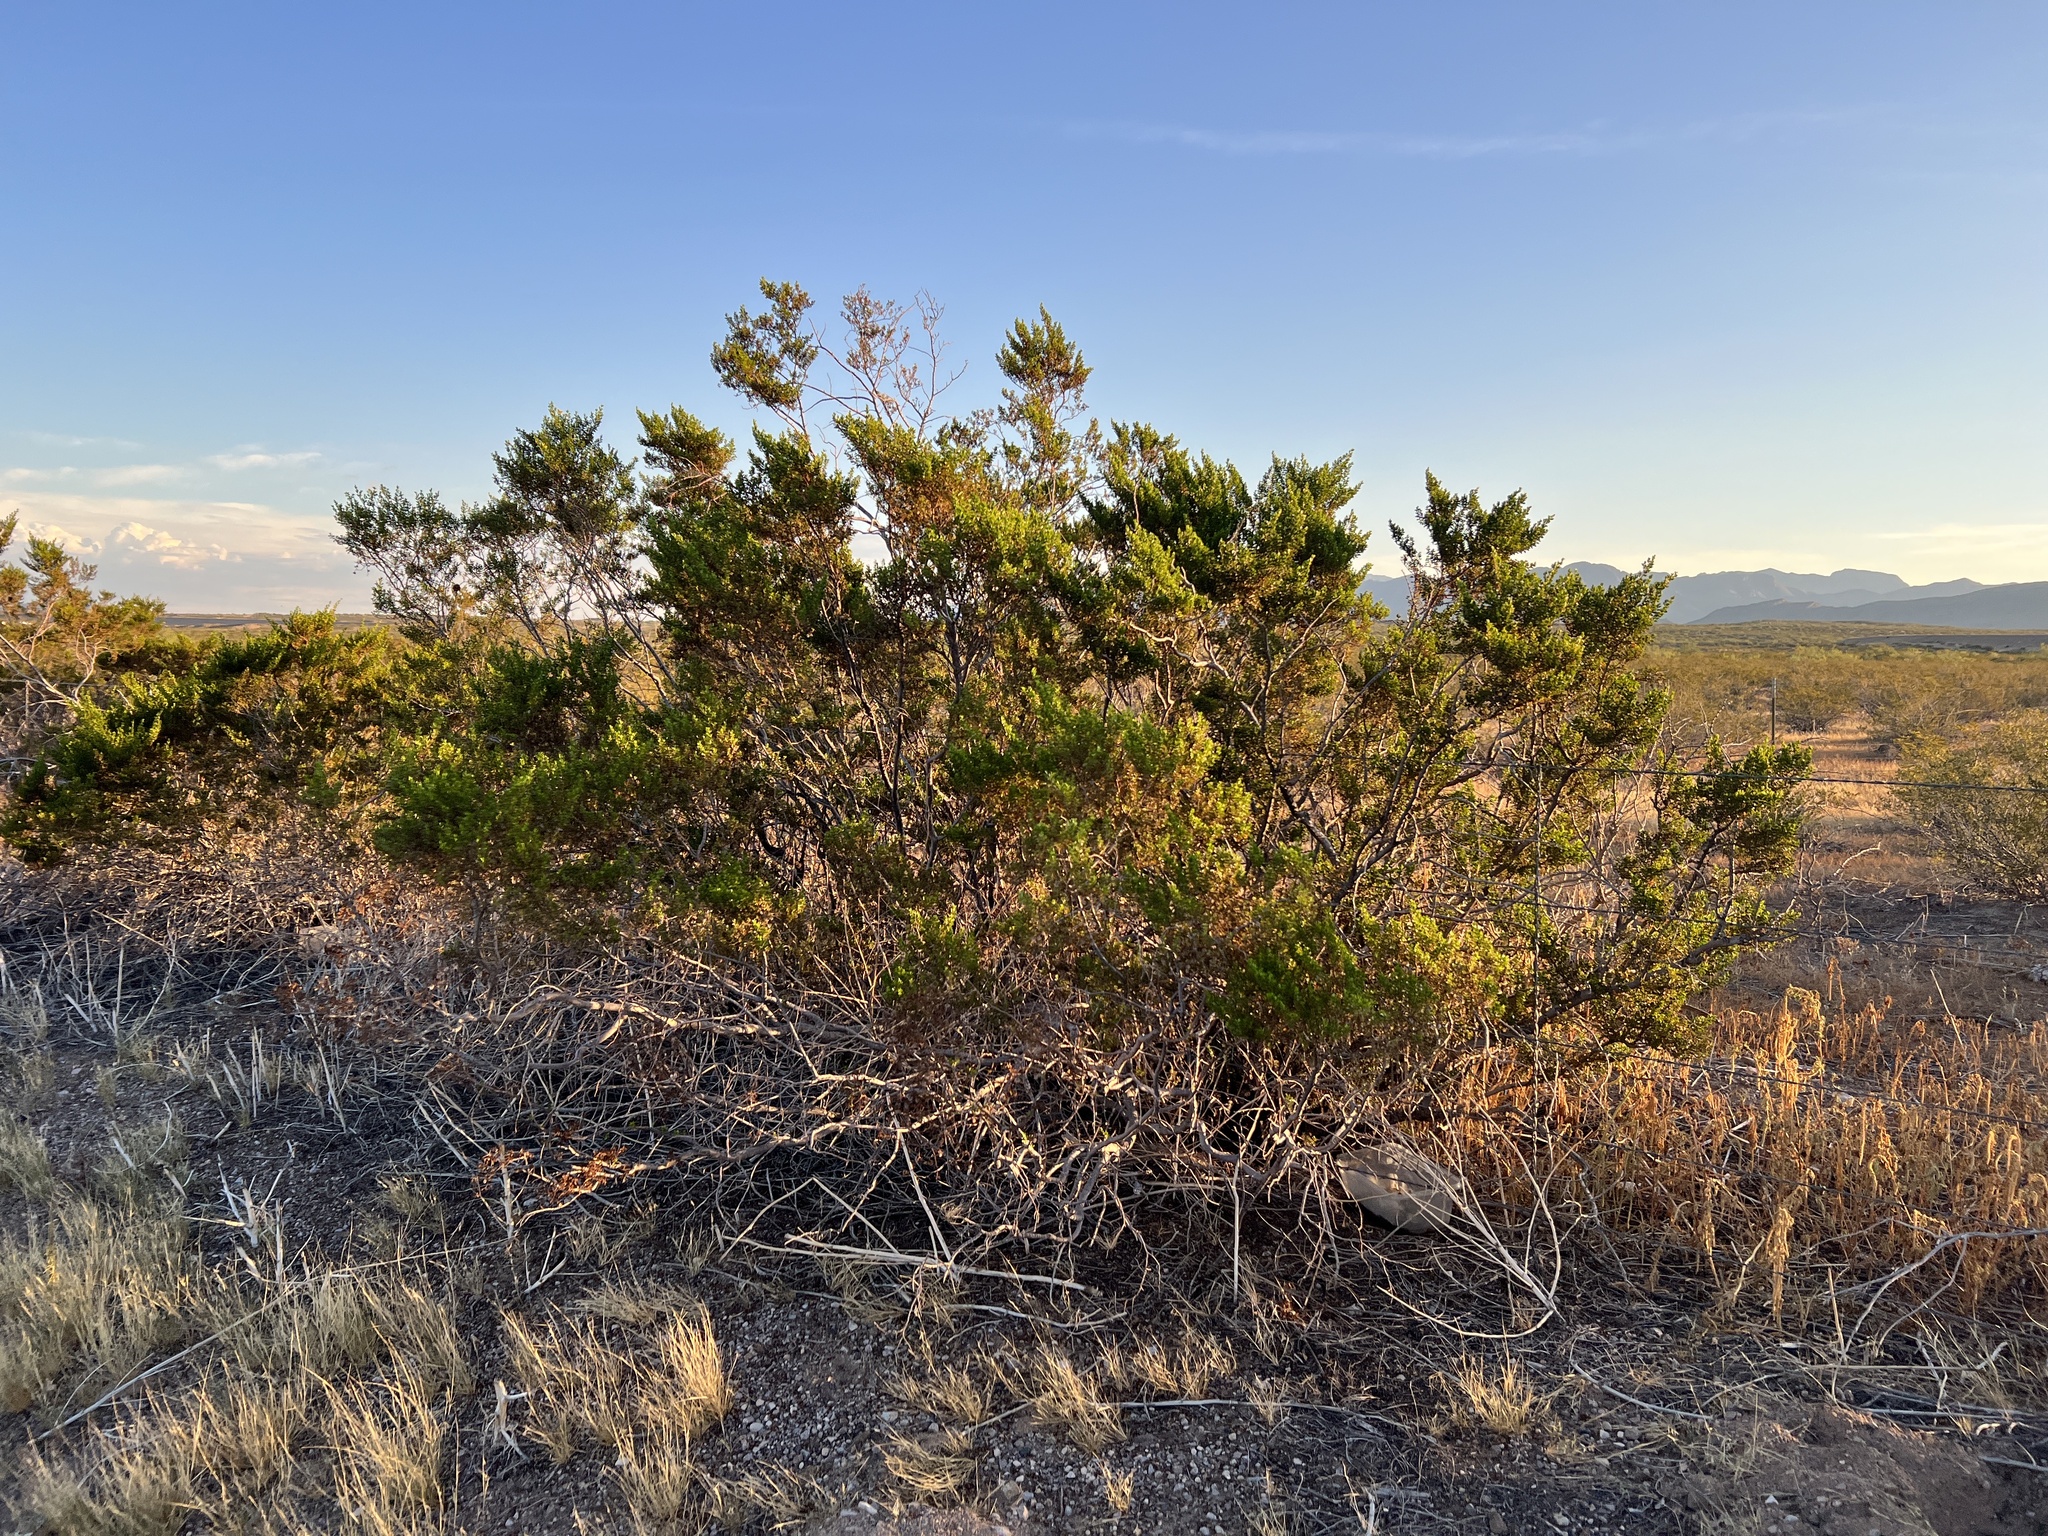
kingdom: Plantae
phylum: Tracheophyta
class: Magnoliopsida
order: Zygophyllales
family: Zygophyllaceae
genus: Larrea
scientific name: Larrea tridentata
